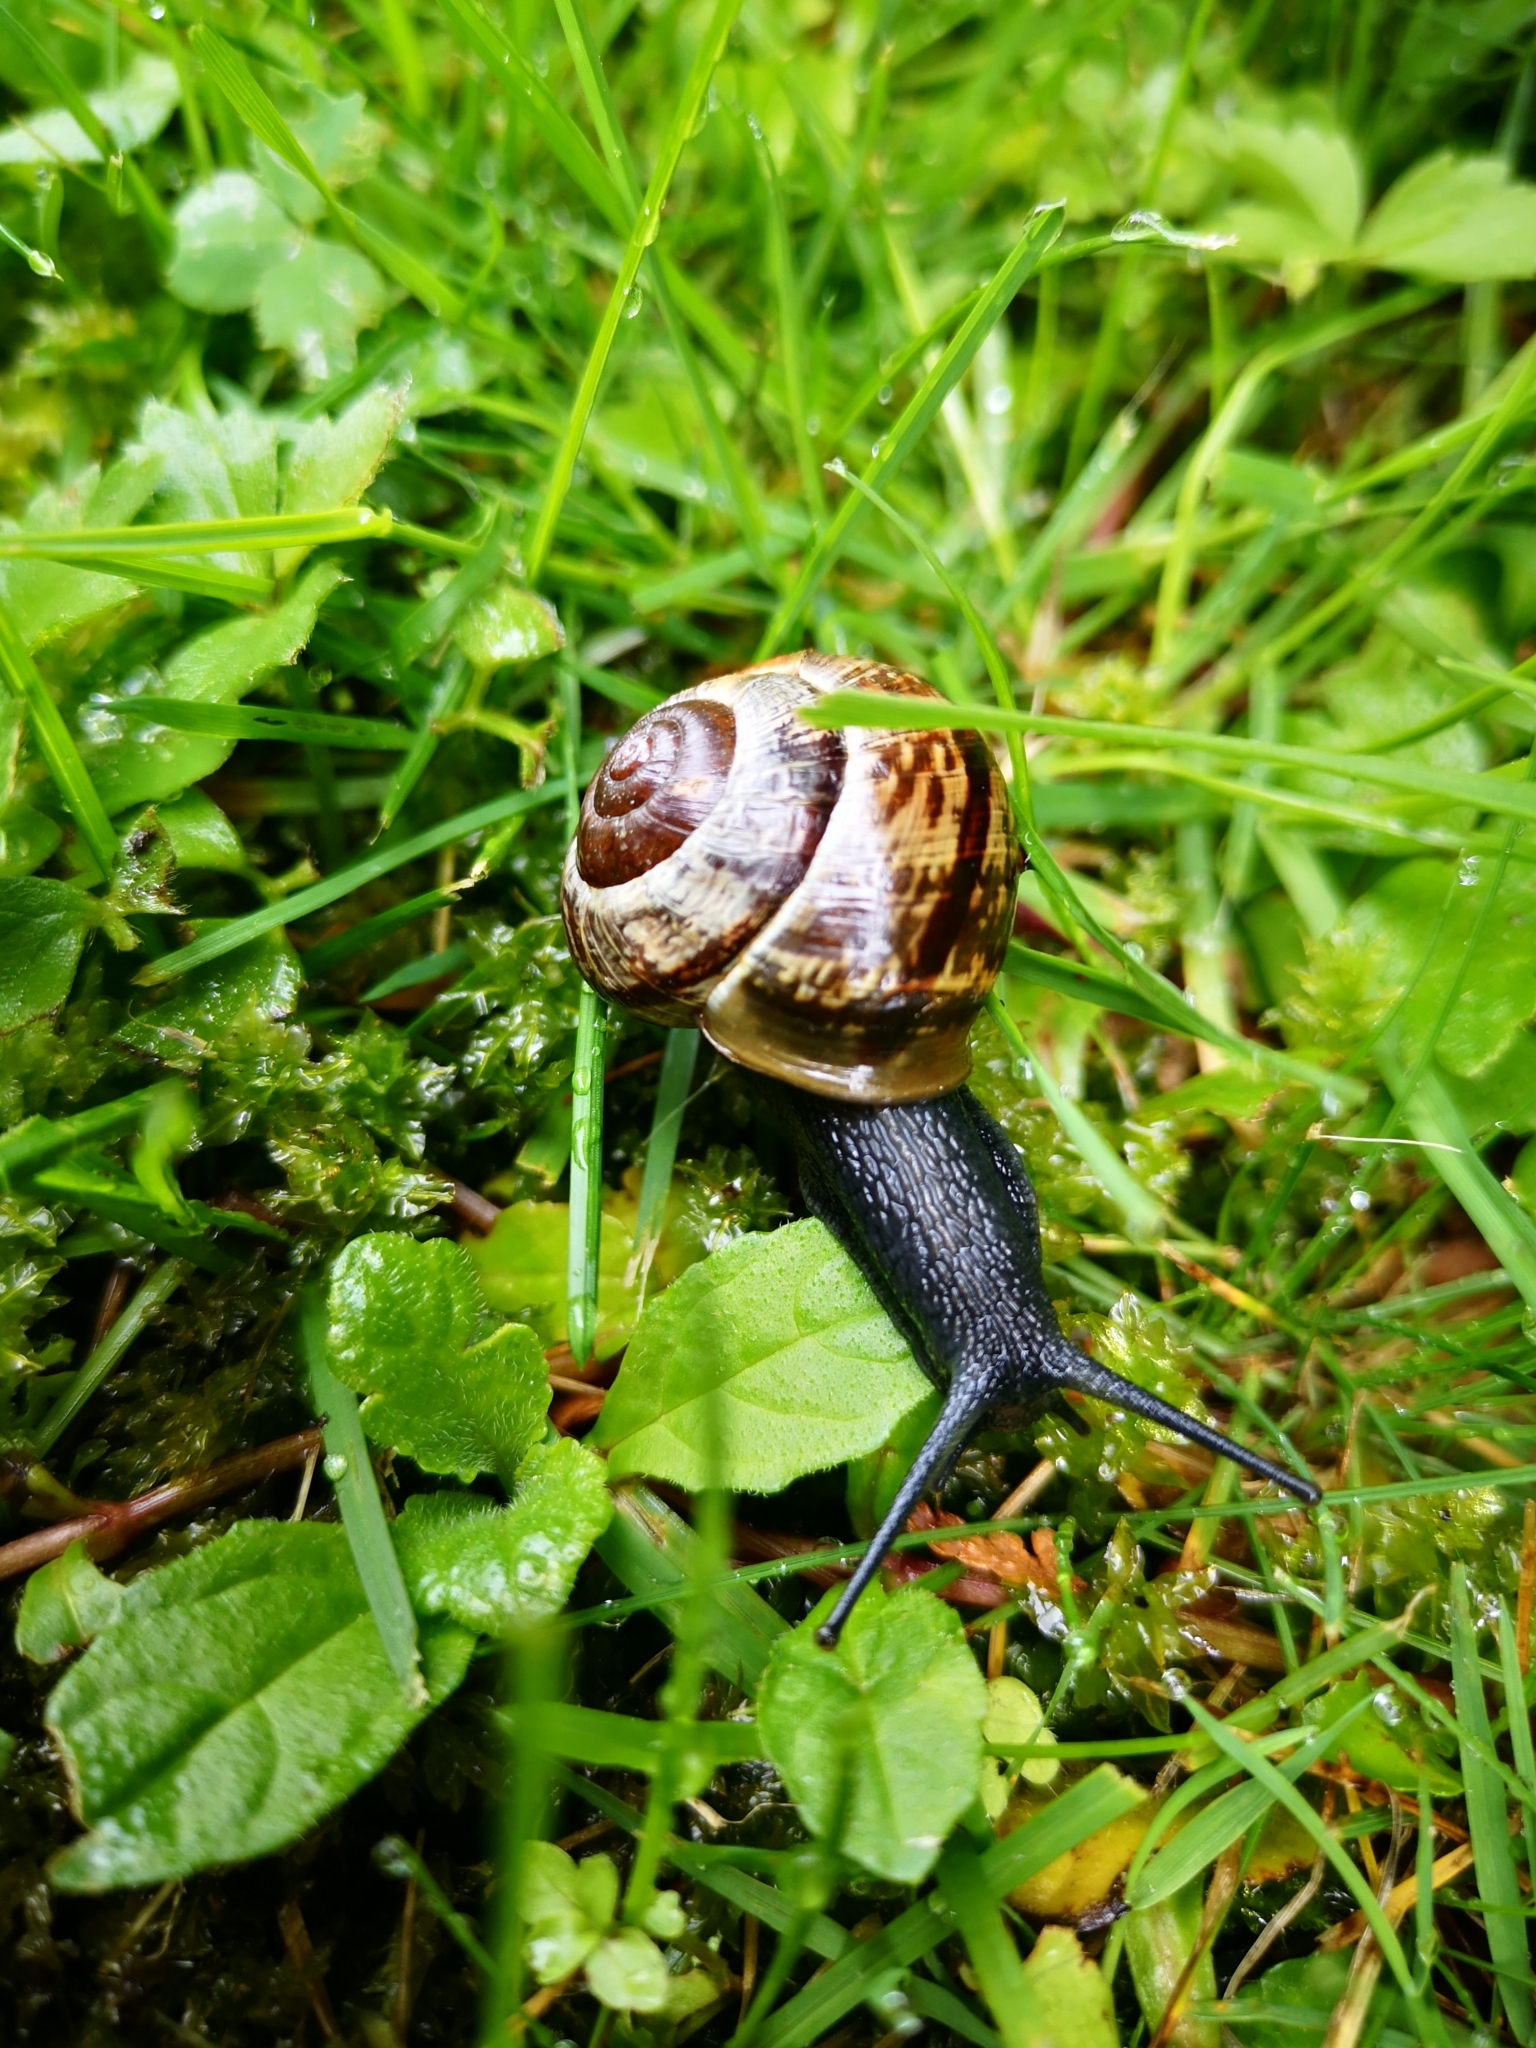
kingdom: Animalia
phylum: Mollusca
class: Gastropoda
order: Stylommatophora
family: Helicidae
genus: Arianta
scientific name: Arianta arbustorum
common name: Copse snail
